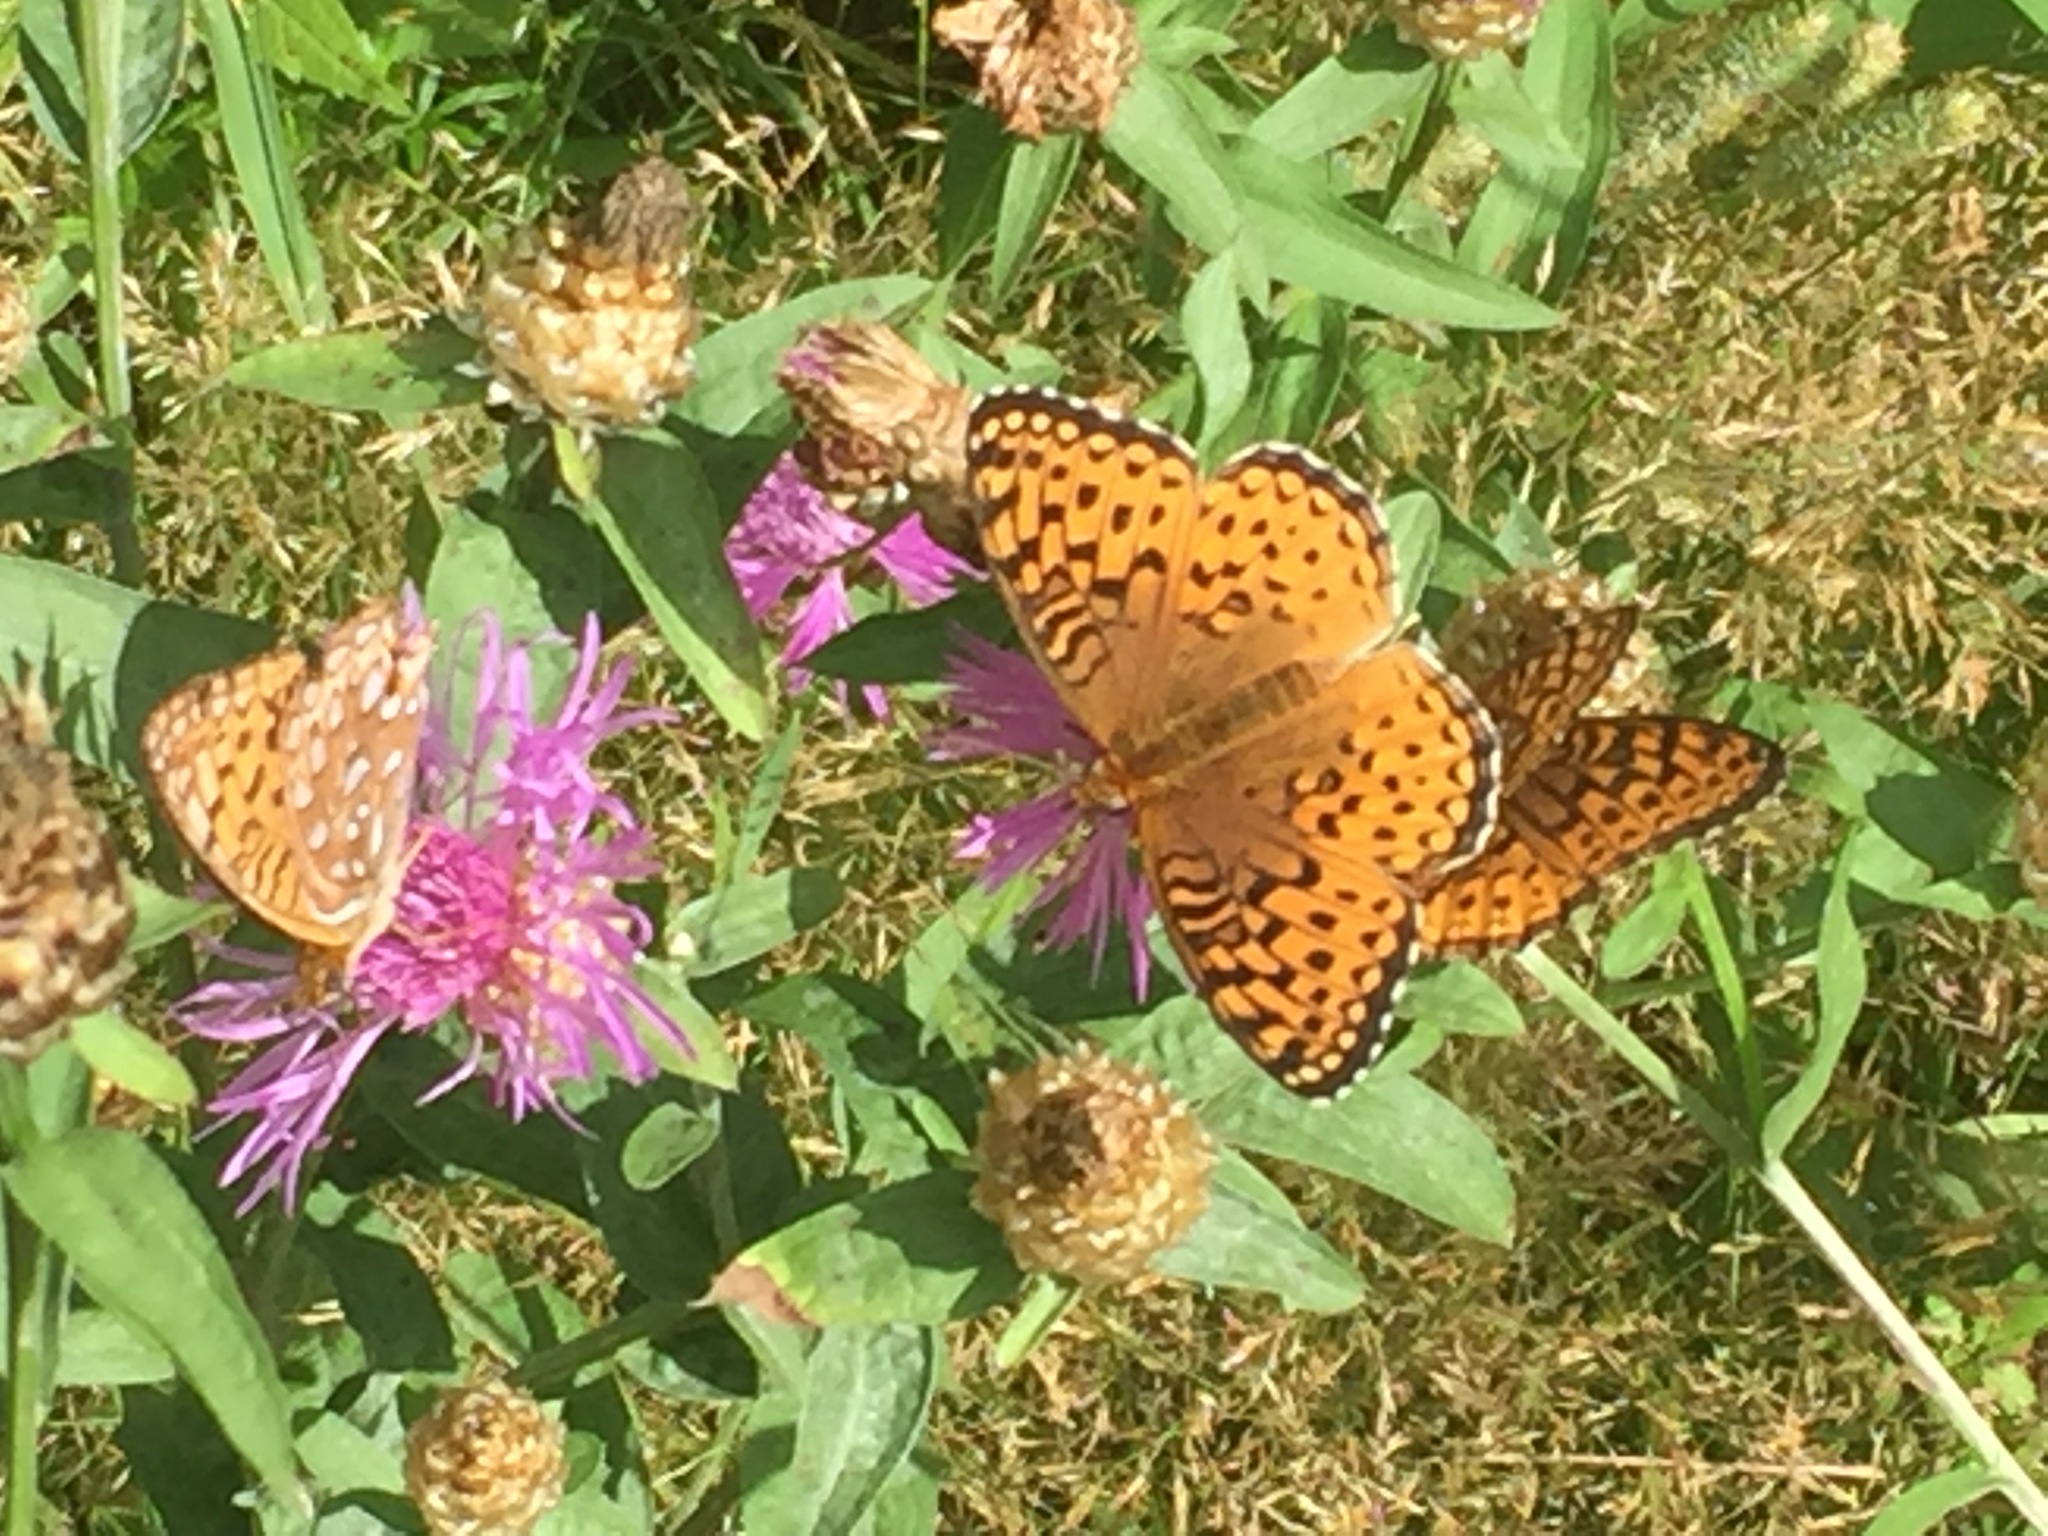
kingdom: Animalia
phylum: Arthropoda
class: Insecta
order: Lepidoptera
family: Nymphalidae
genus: Speyeria
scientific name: Speyeria atlantis
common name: Atlantis fritillary
